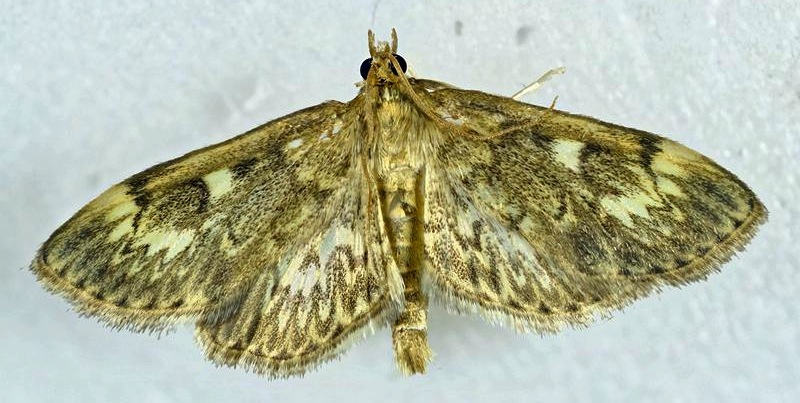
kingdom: Animalia
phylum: Arthropoda
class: Insecta
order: Lepidoptera
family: Crambidae
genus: Anania
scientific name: Anania
